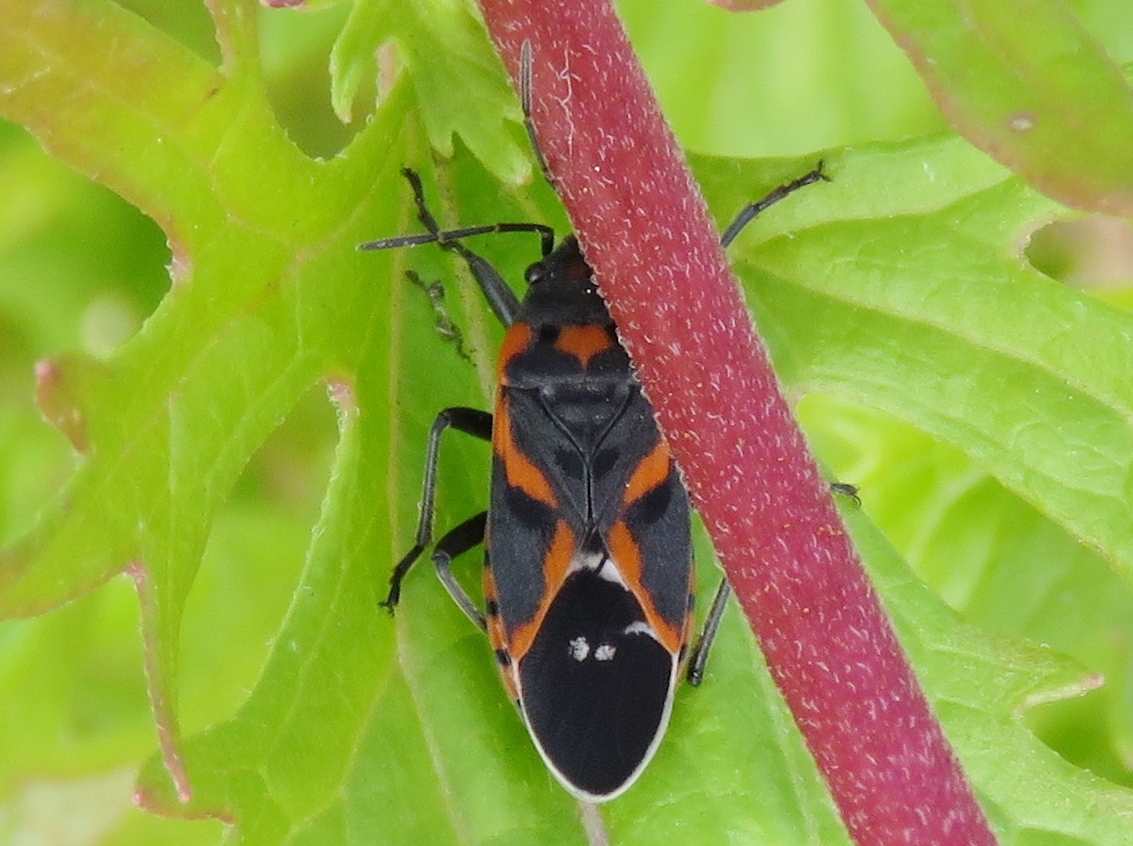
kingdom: Animalia
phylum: Arthropoda
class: Insecta
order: Hemiptera
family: Lygaeidae
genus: Lygaeus
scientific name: Lygaeus kalmii
